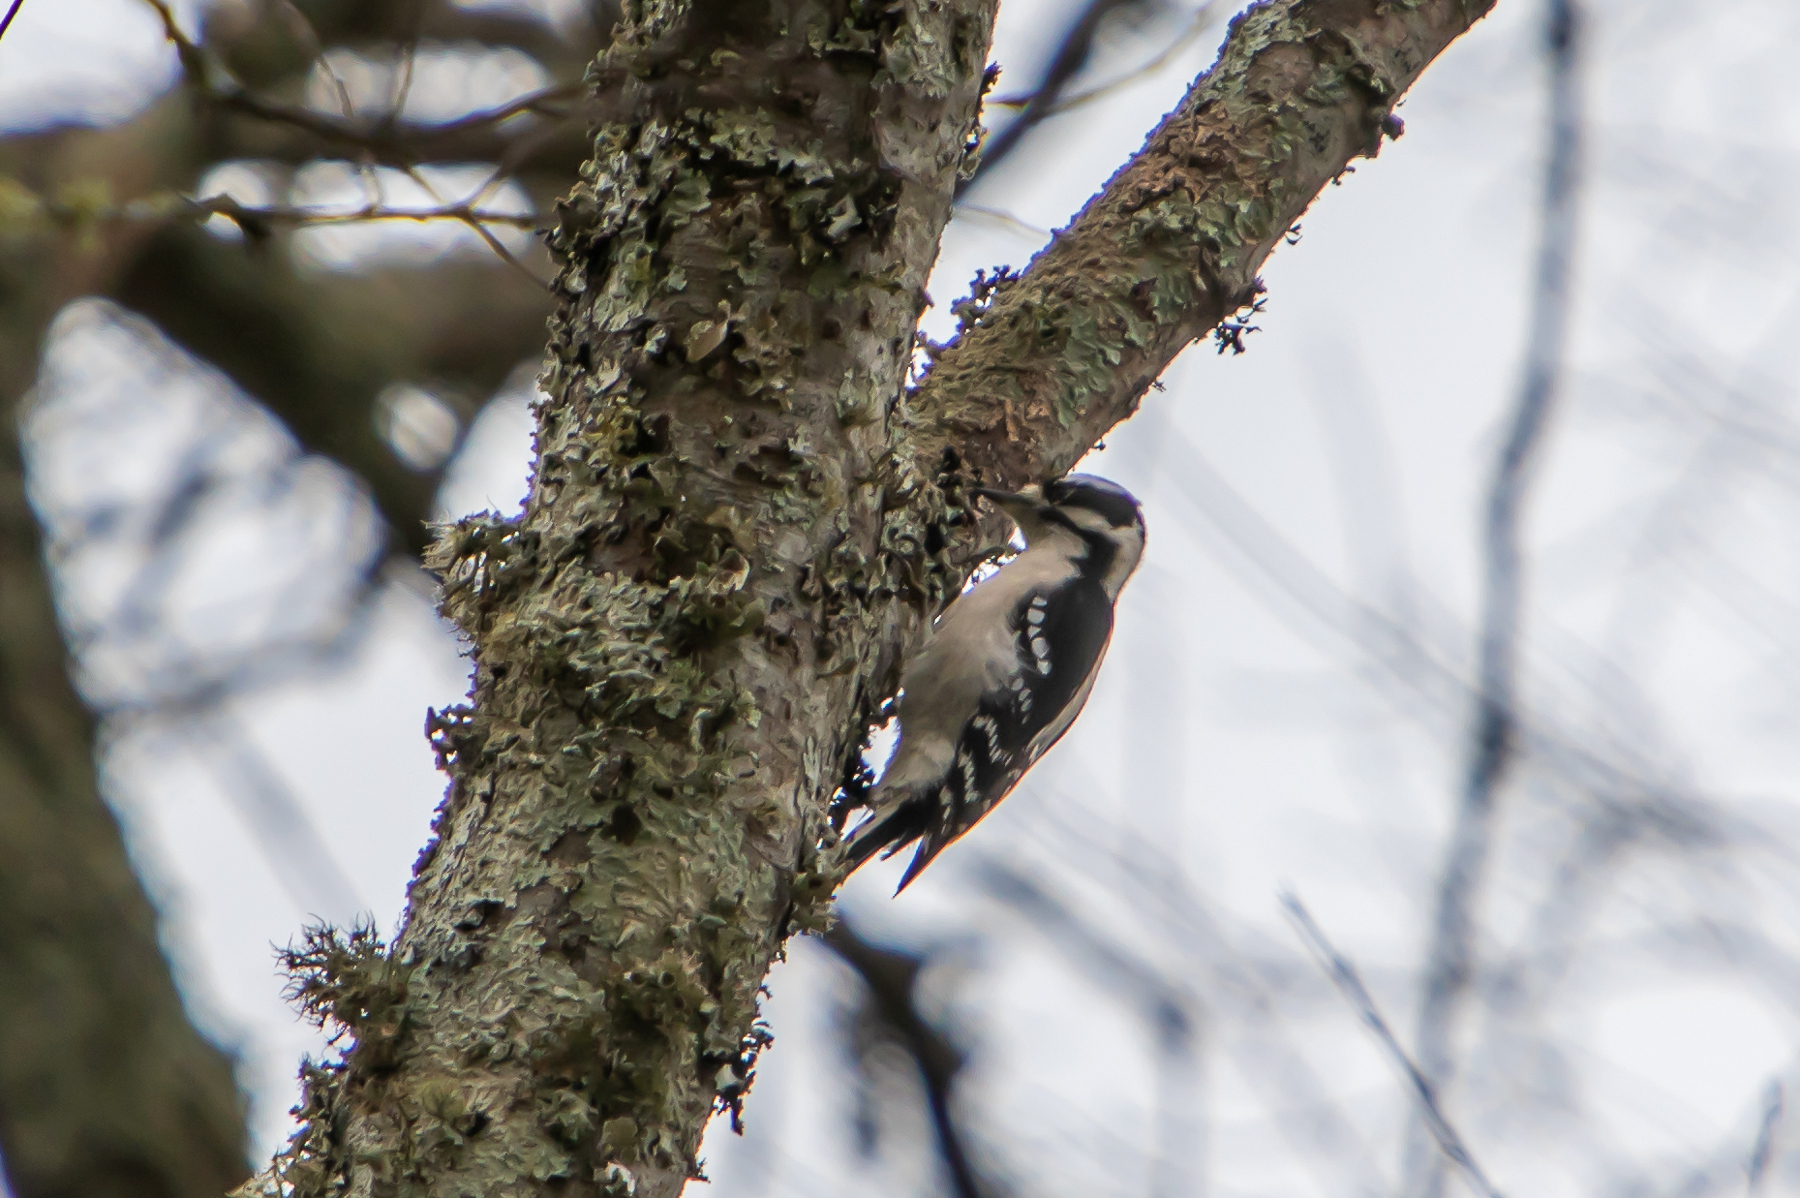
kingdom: Animalia
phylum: Chordata
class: Aves
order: Piciformes
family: Picidae
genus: Dryobates
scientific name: Dryobates pubescens
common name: Downy woodpecker
